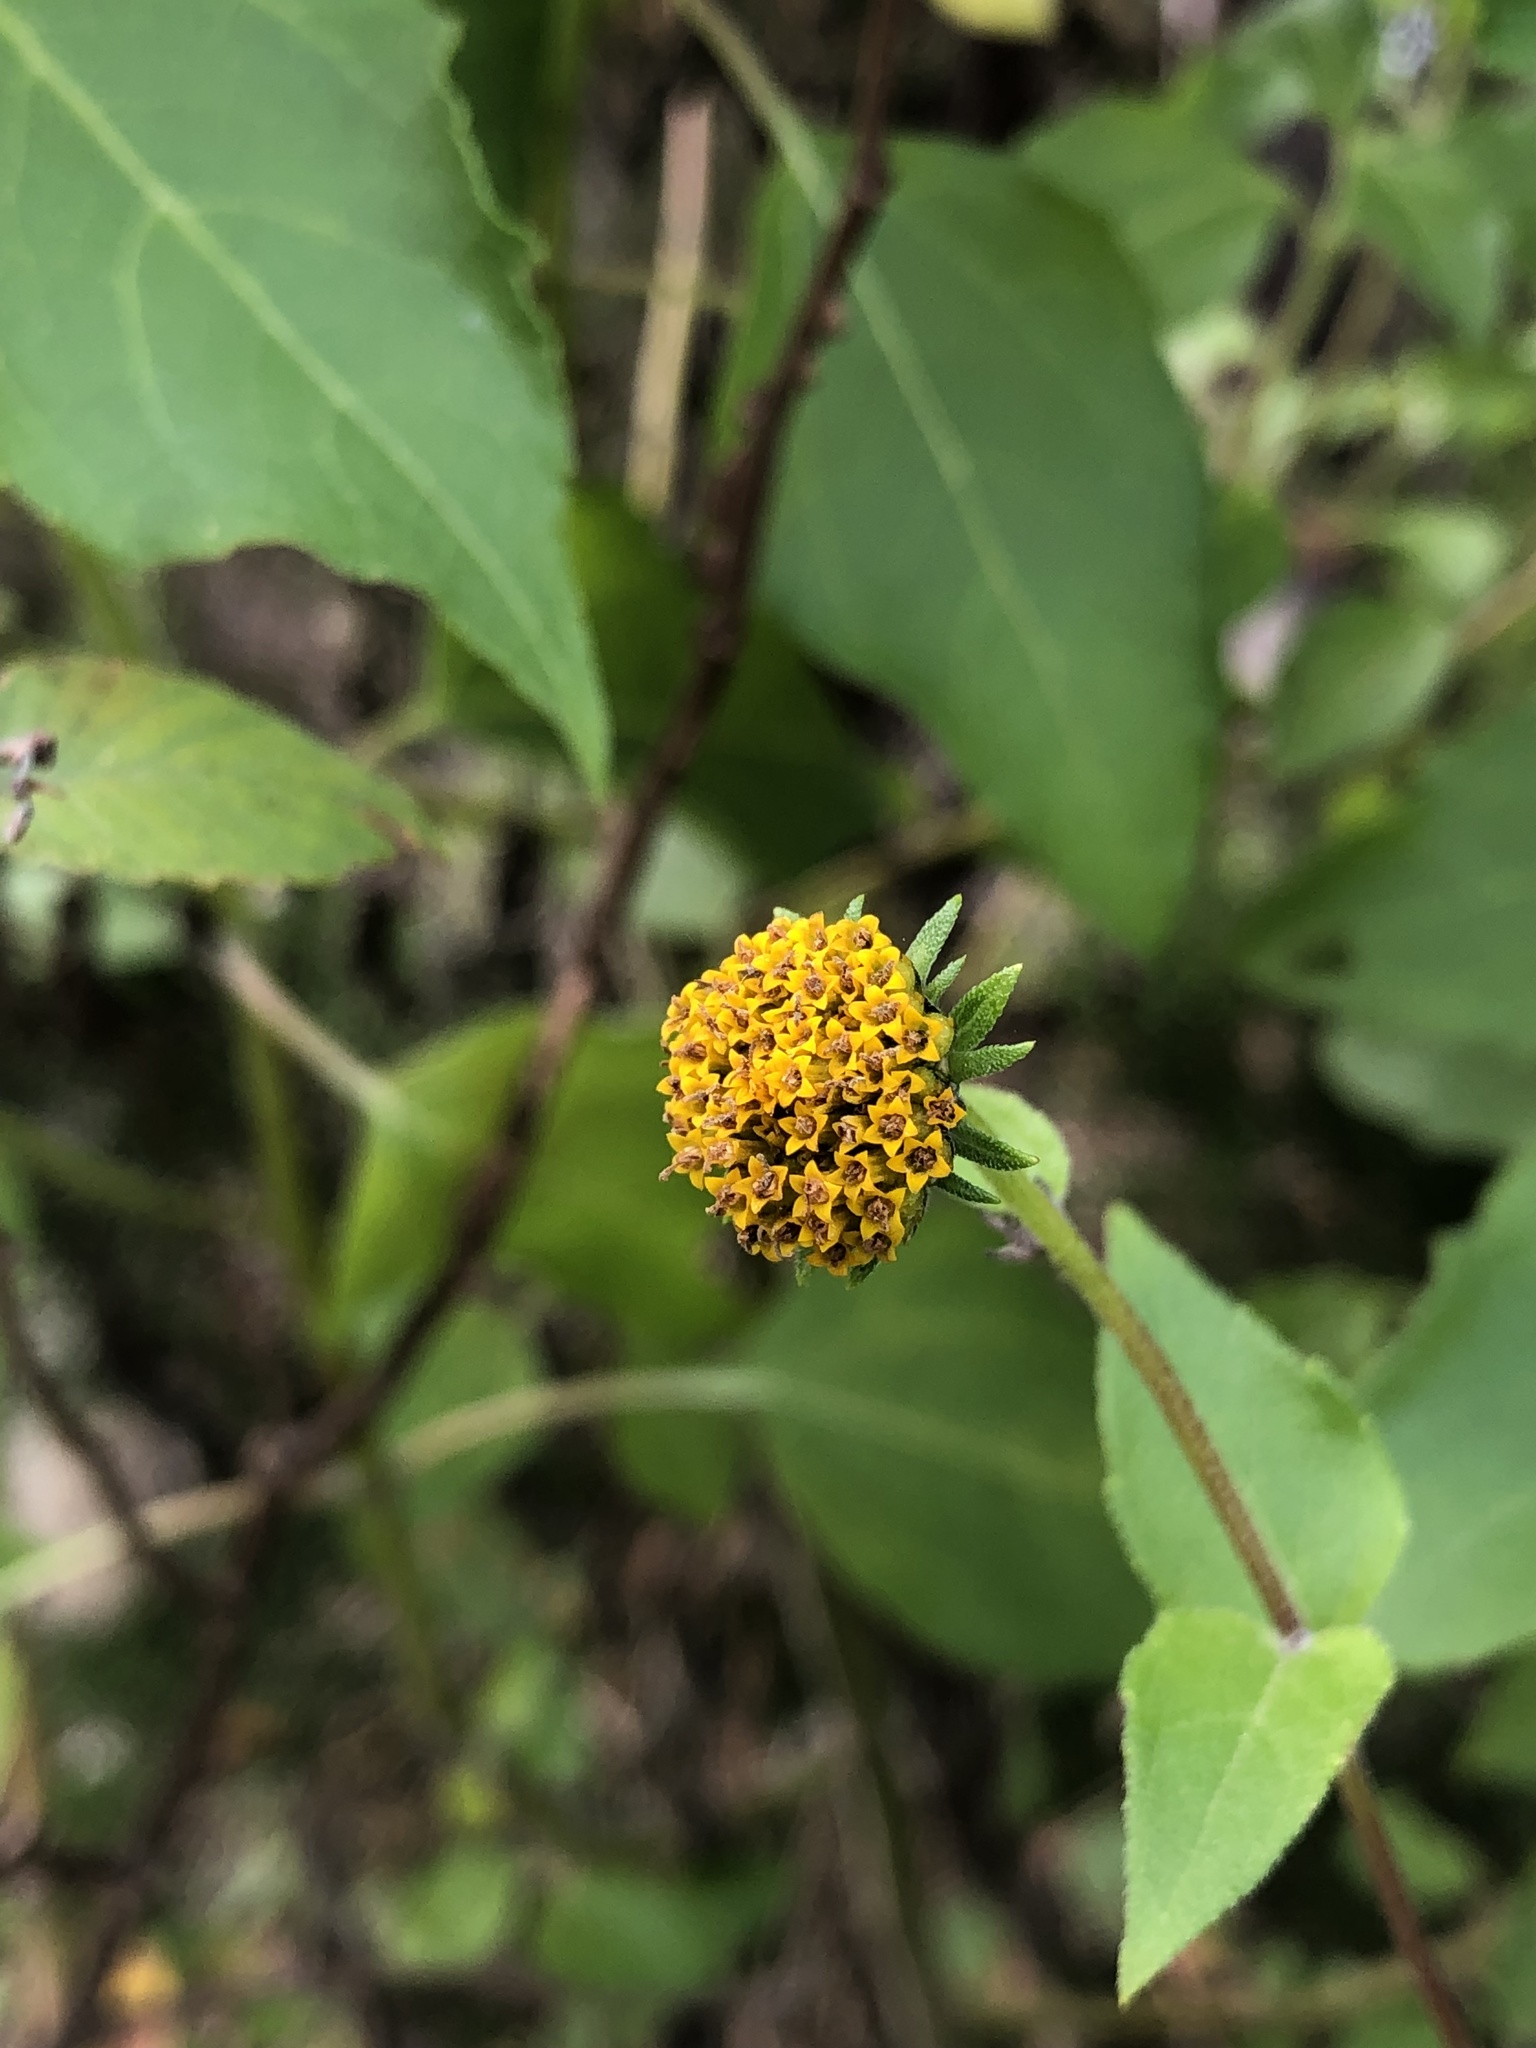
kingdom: Plantae
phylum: Tracheophyta
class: Magnoliopsida
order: Asterales
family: Asteraceae
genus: Viguiera
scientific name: Viguiera dentata
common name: Toothleaf
